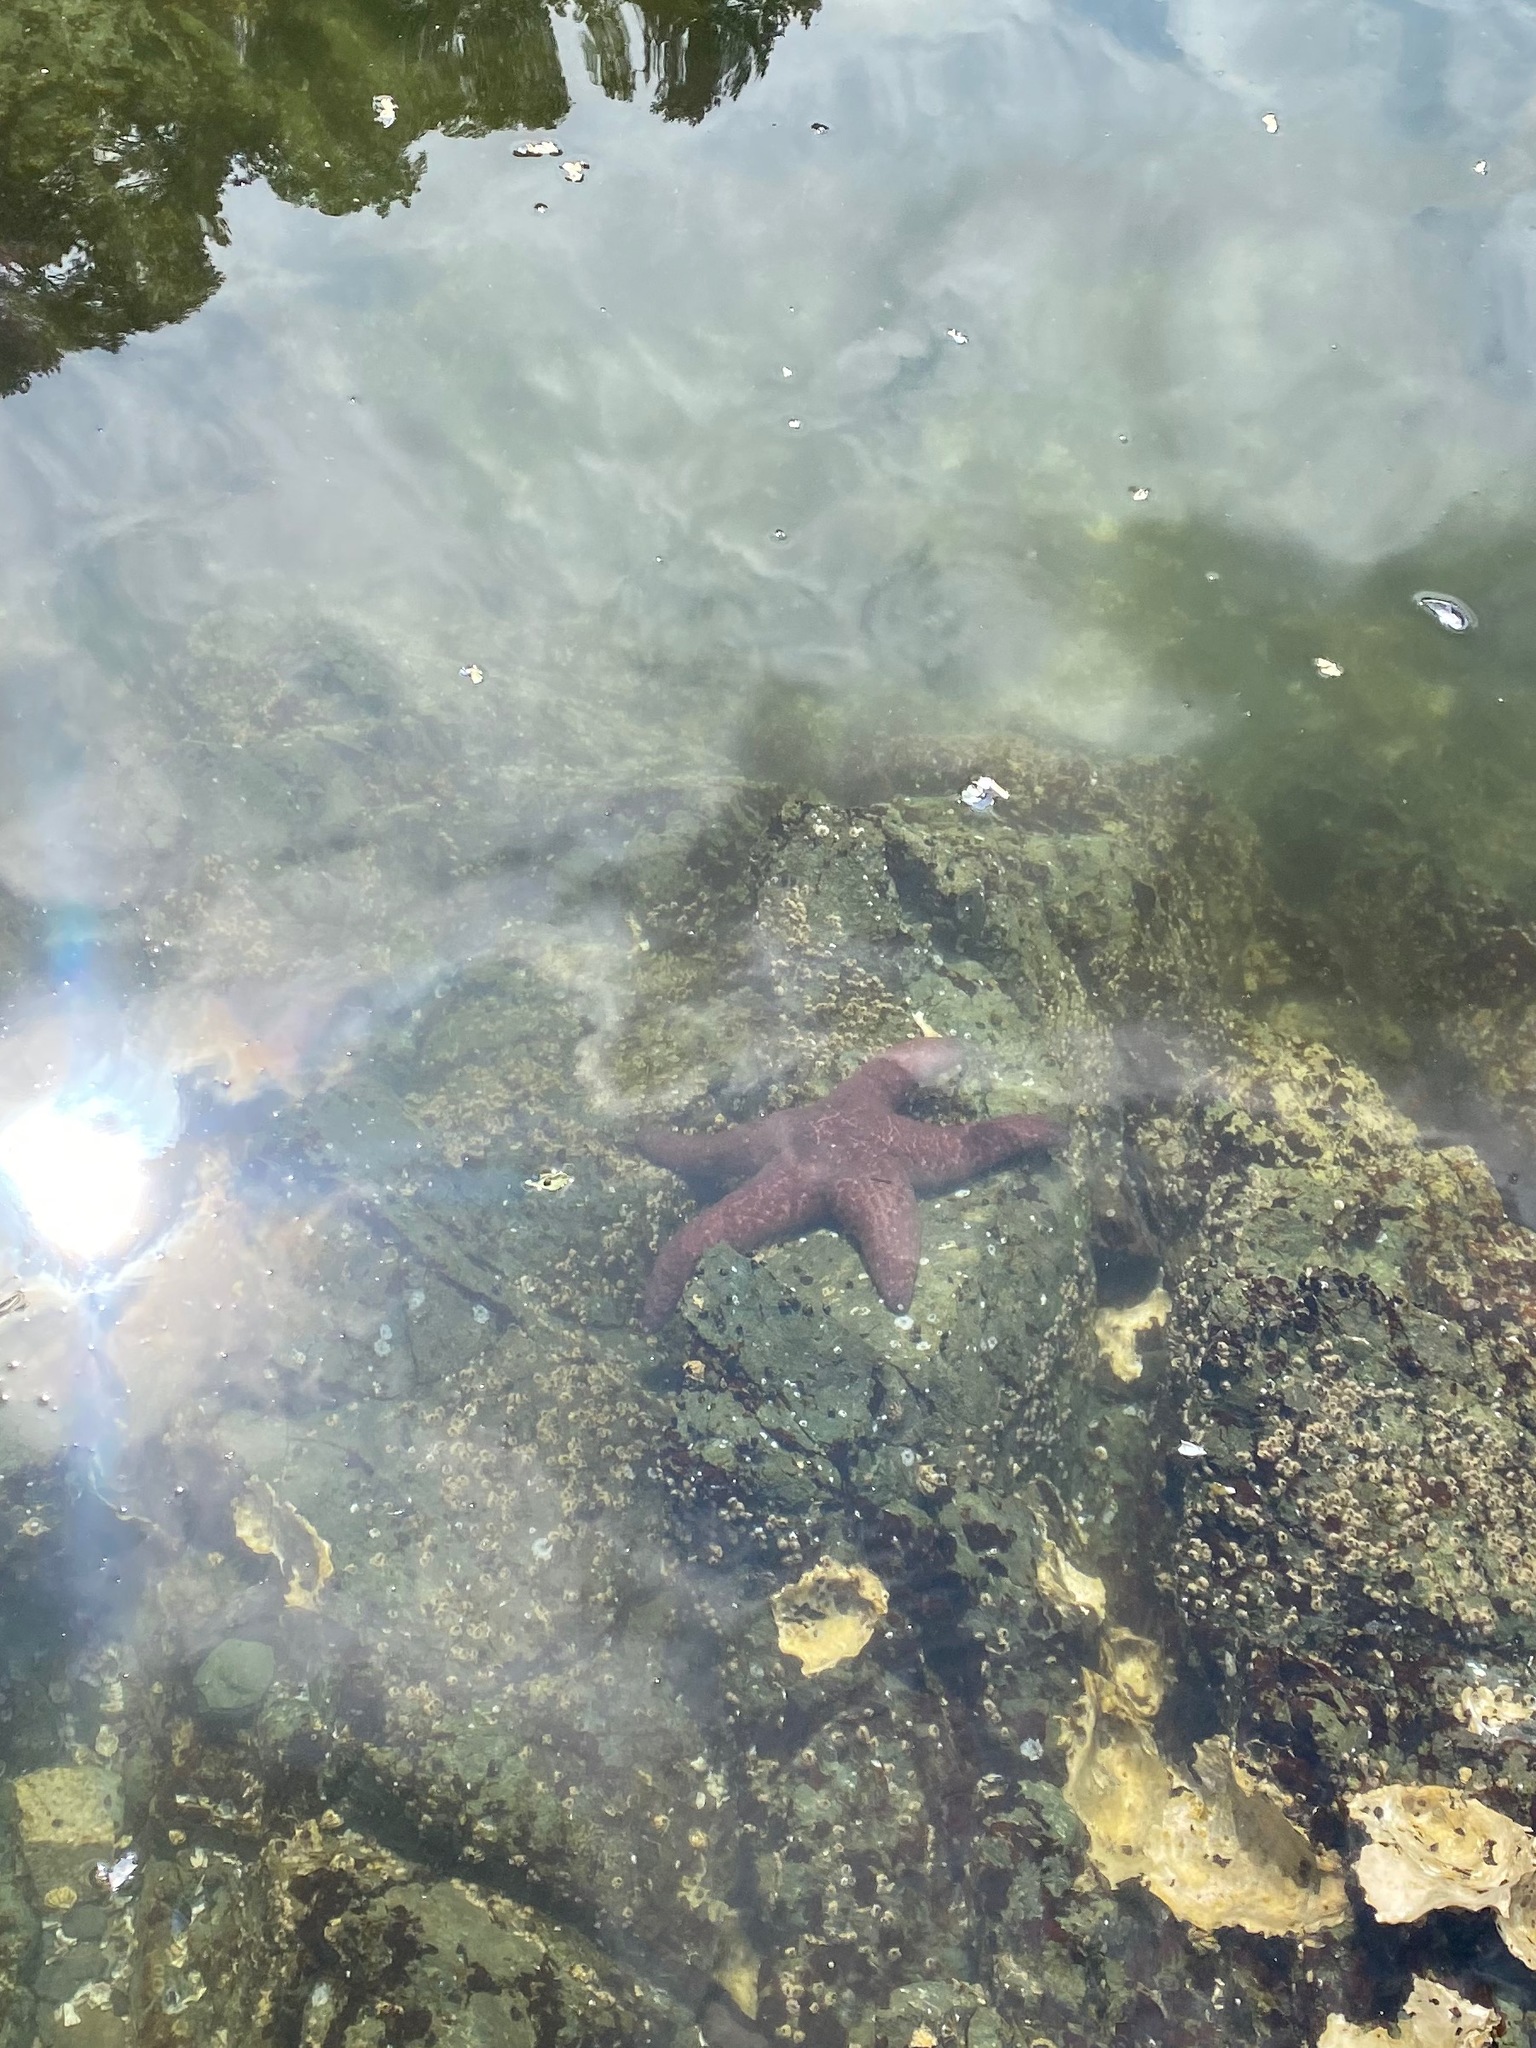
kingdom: Animalia
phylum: Echinodermata
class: Asteroidea
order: Forcipulatida
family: Asteriidae
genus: Pisaster
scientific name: Pisaster ochraceus
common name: Ochre stars
